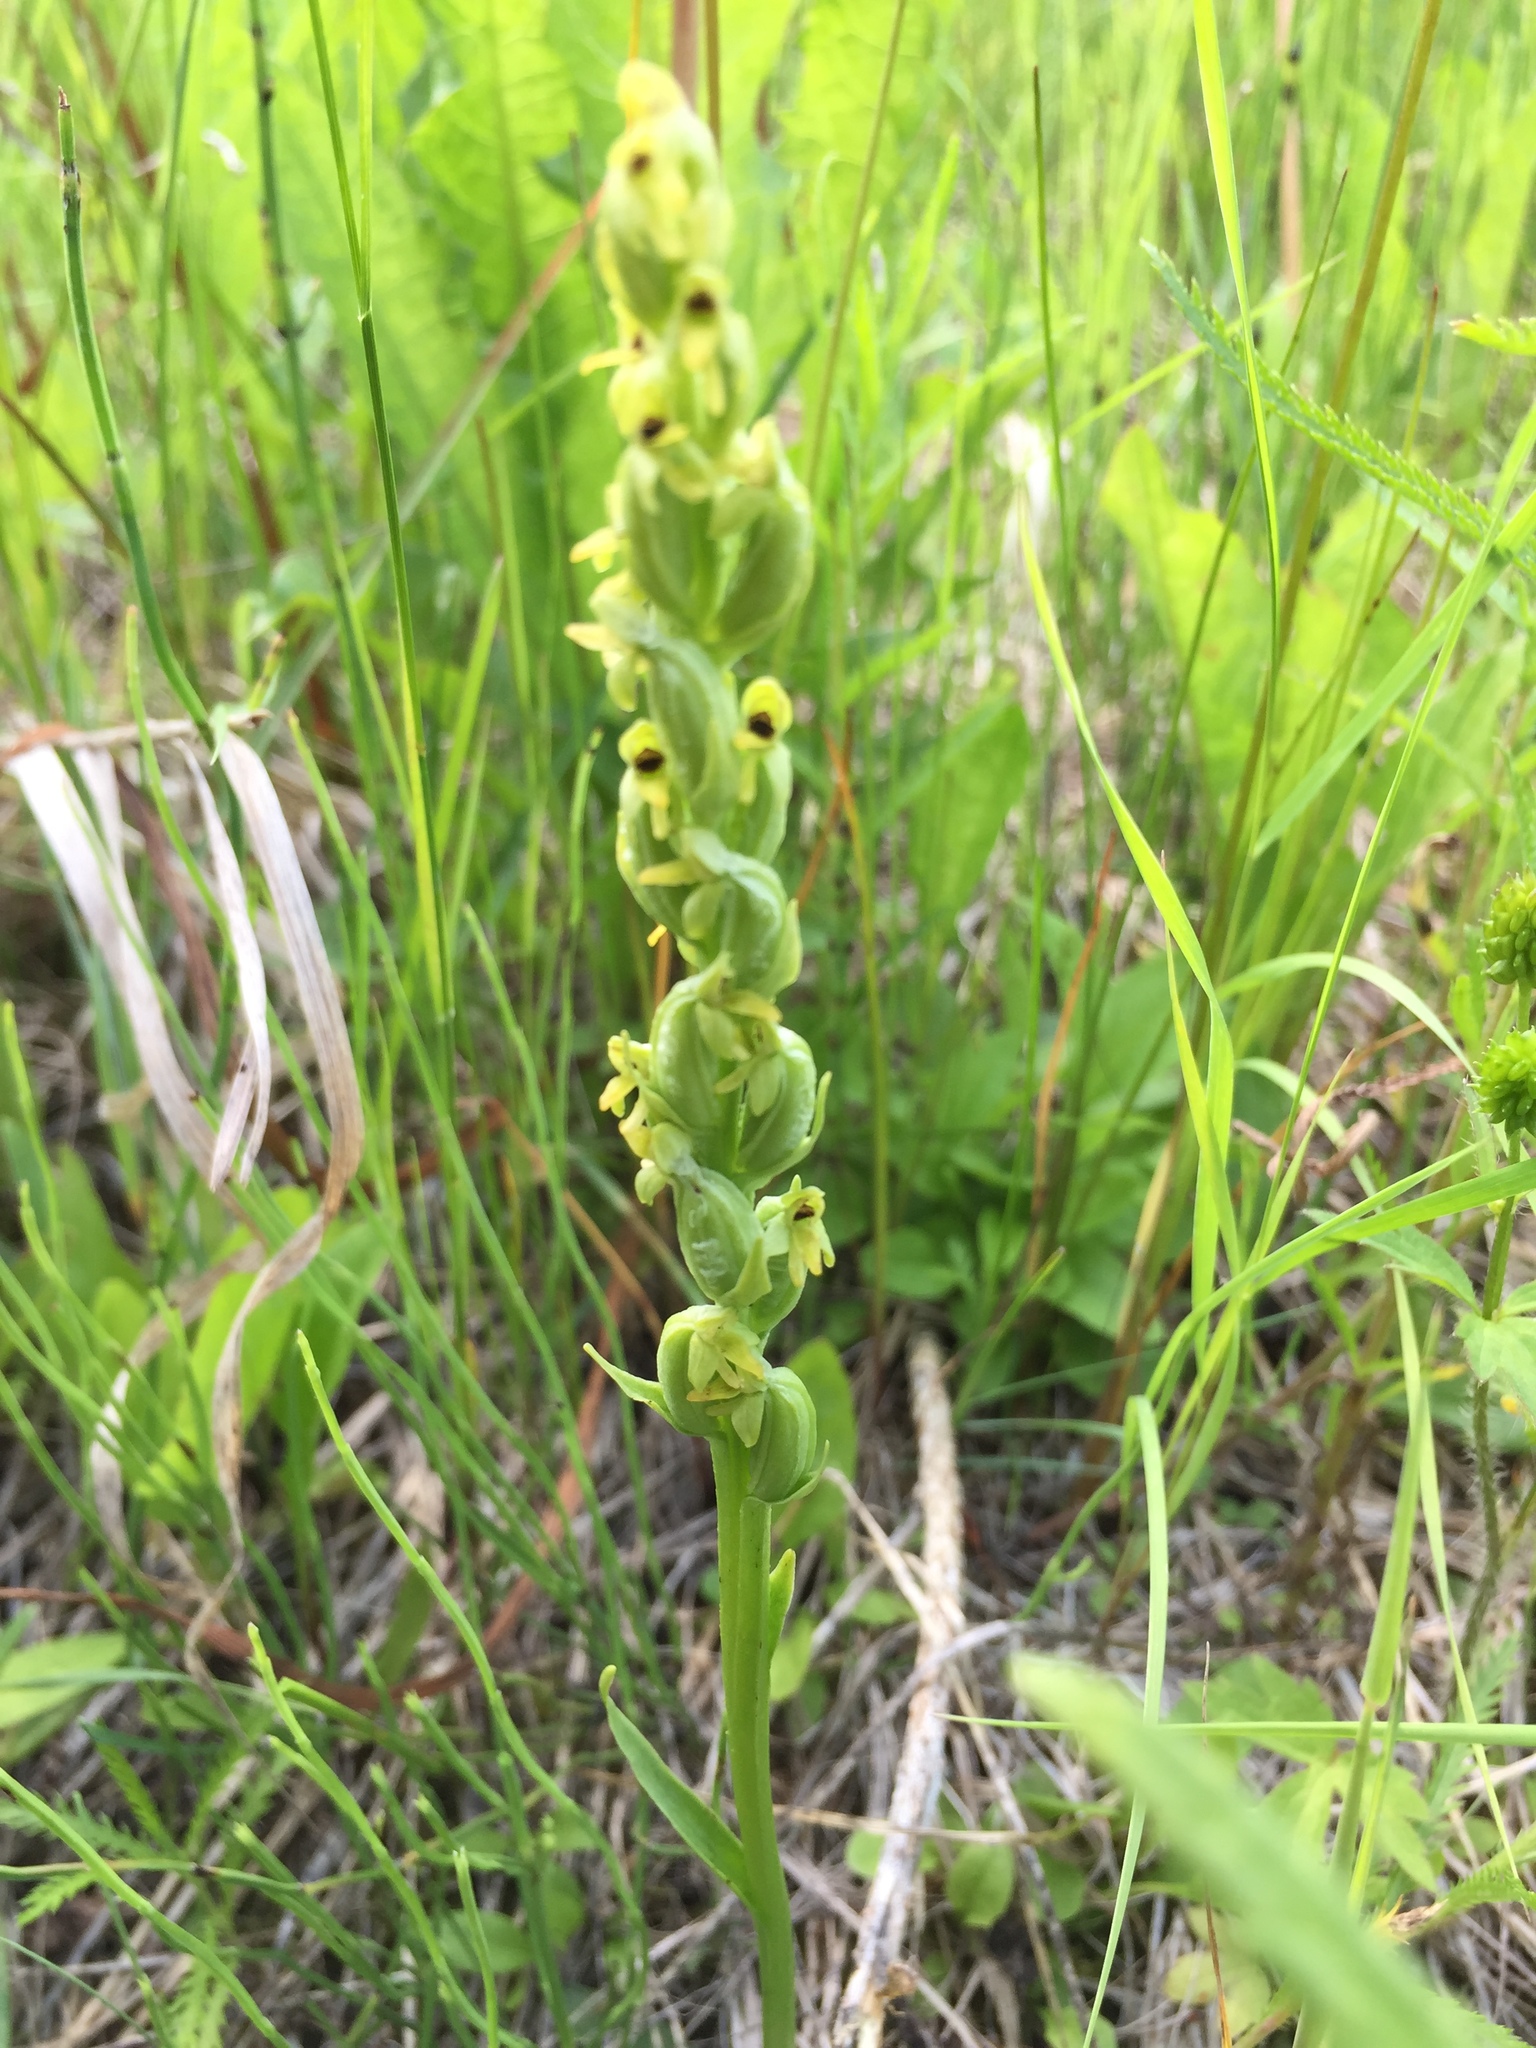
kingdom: Plantae
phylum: Tracheophyta
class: Liliopsida
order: Asparagales
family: Orchidaceae
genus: Platanthera
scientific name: Platanthera aquilonis
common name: Northern green orchid
